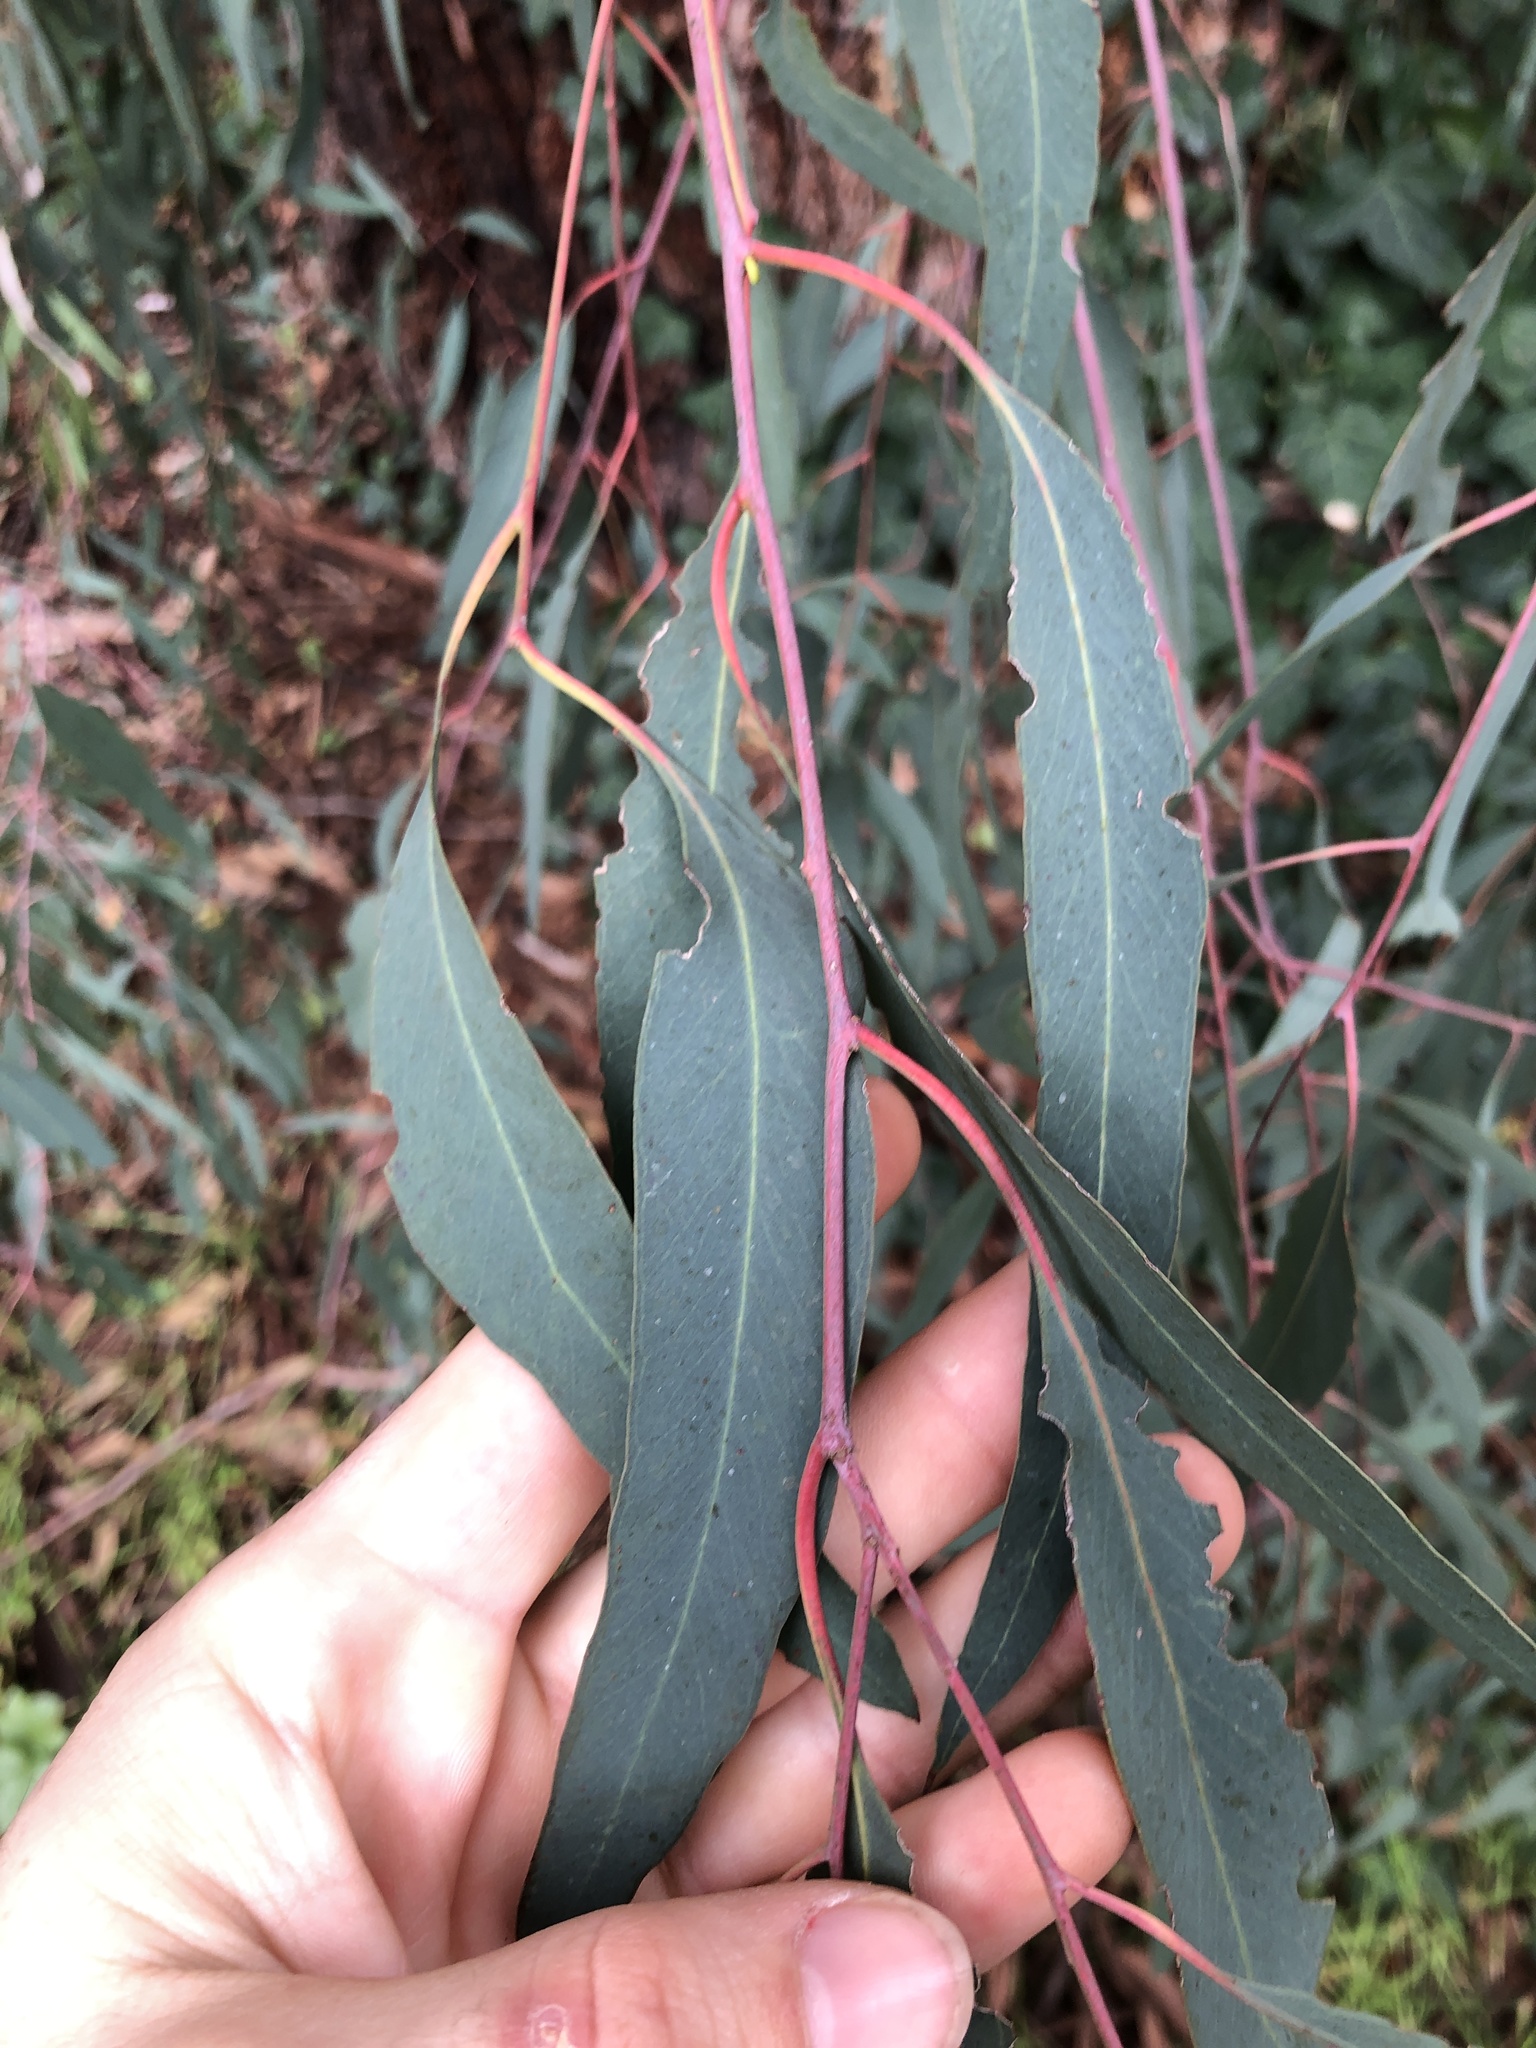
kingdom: Fungi
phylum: Basidiomycota
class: Agaricomycetes
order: Polyporales
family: Laetiporaceae
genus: Laetiporus
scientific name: Laetiporus gilbertsonii
